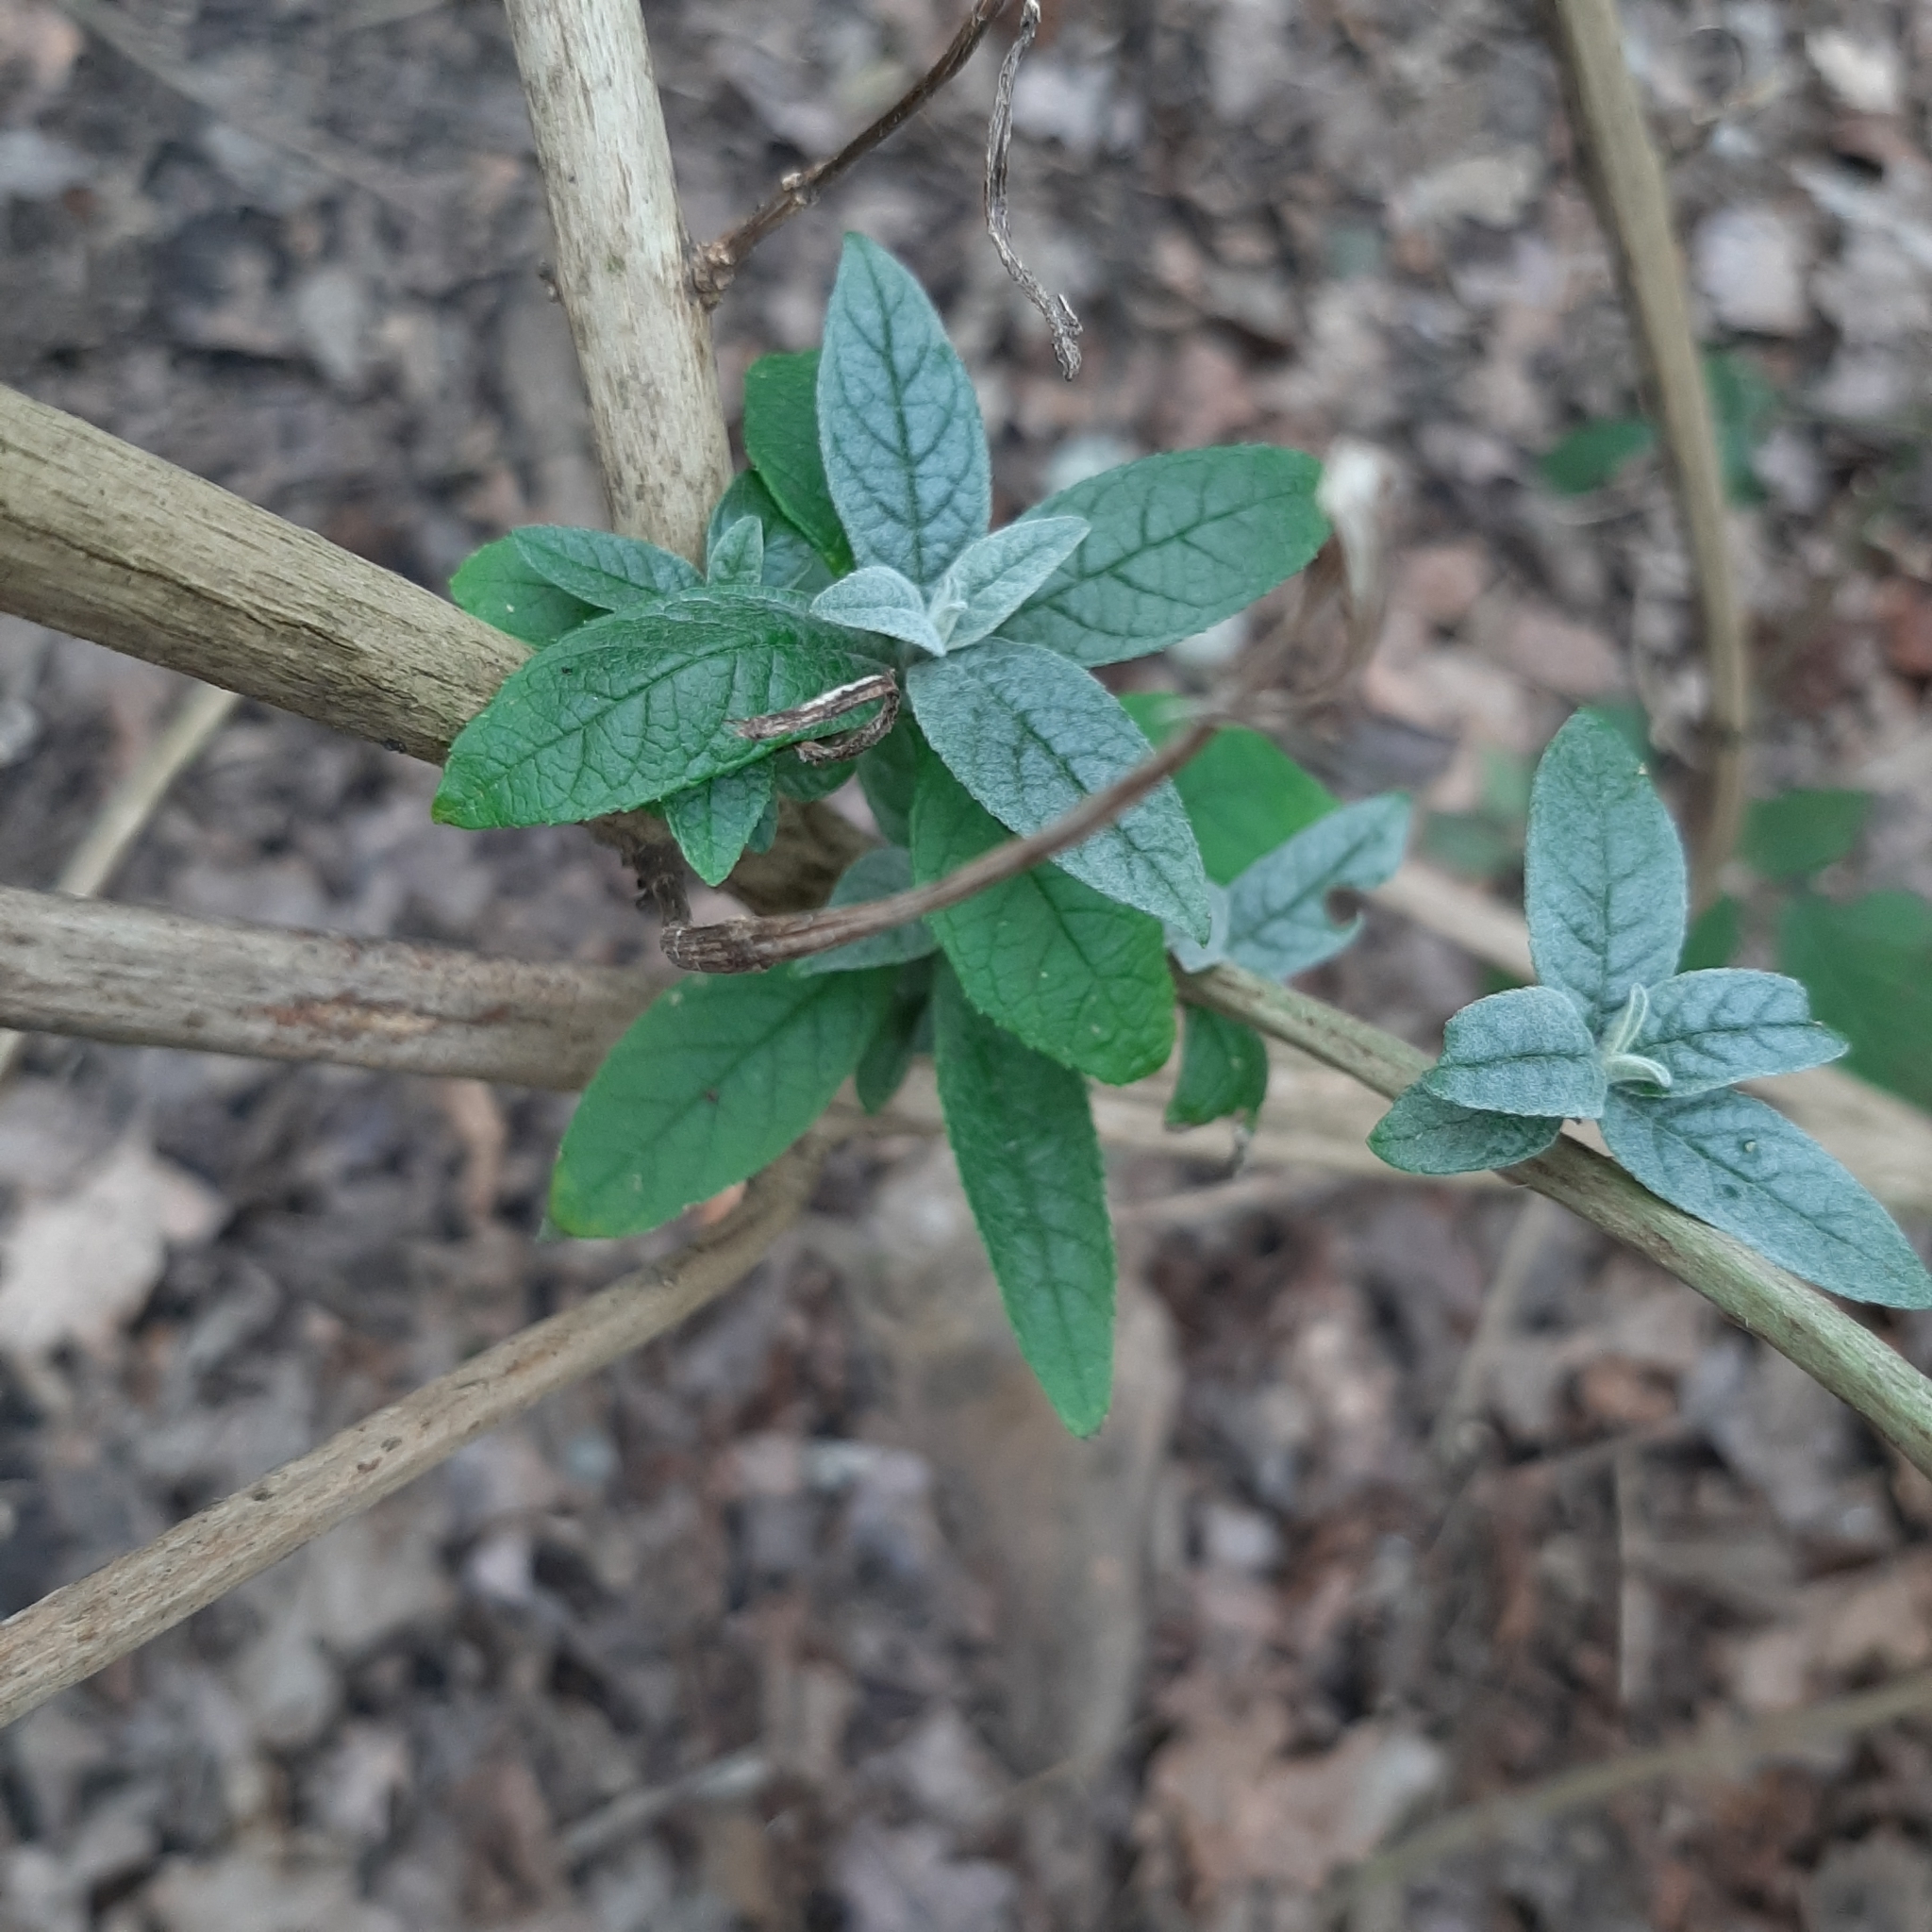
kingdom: Plantae
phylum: Tracheophyta
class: Magnoliopsida
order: Lamiales
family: Scrophulariaceae
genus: Buddleja
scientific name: Buddleja davidii
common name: Butterfly-bush
